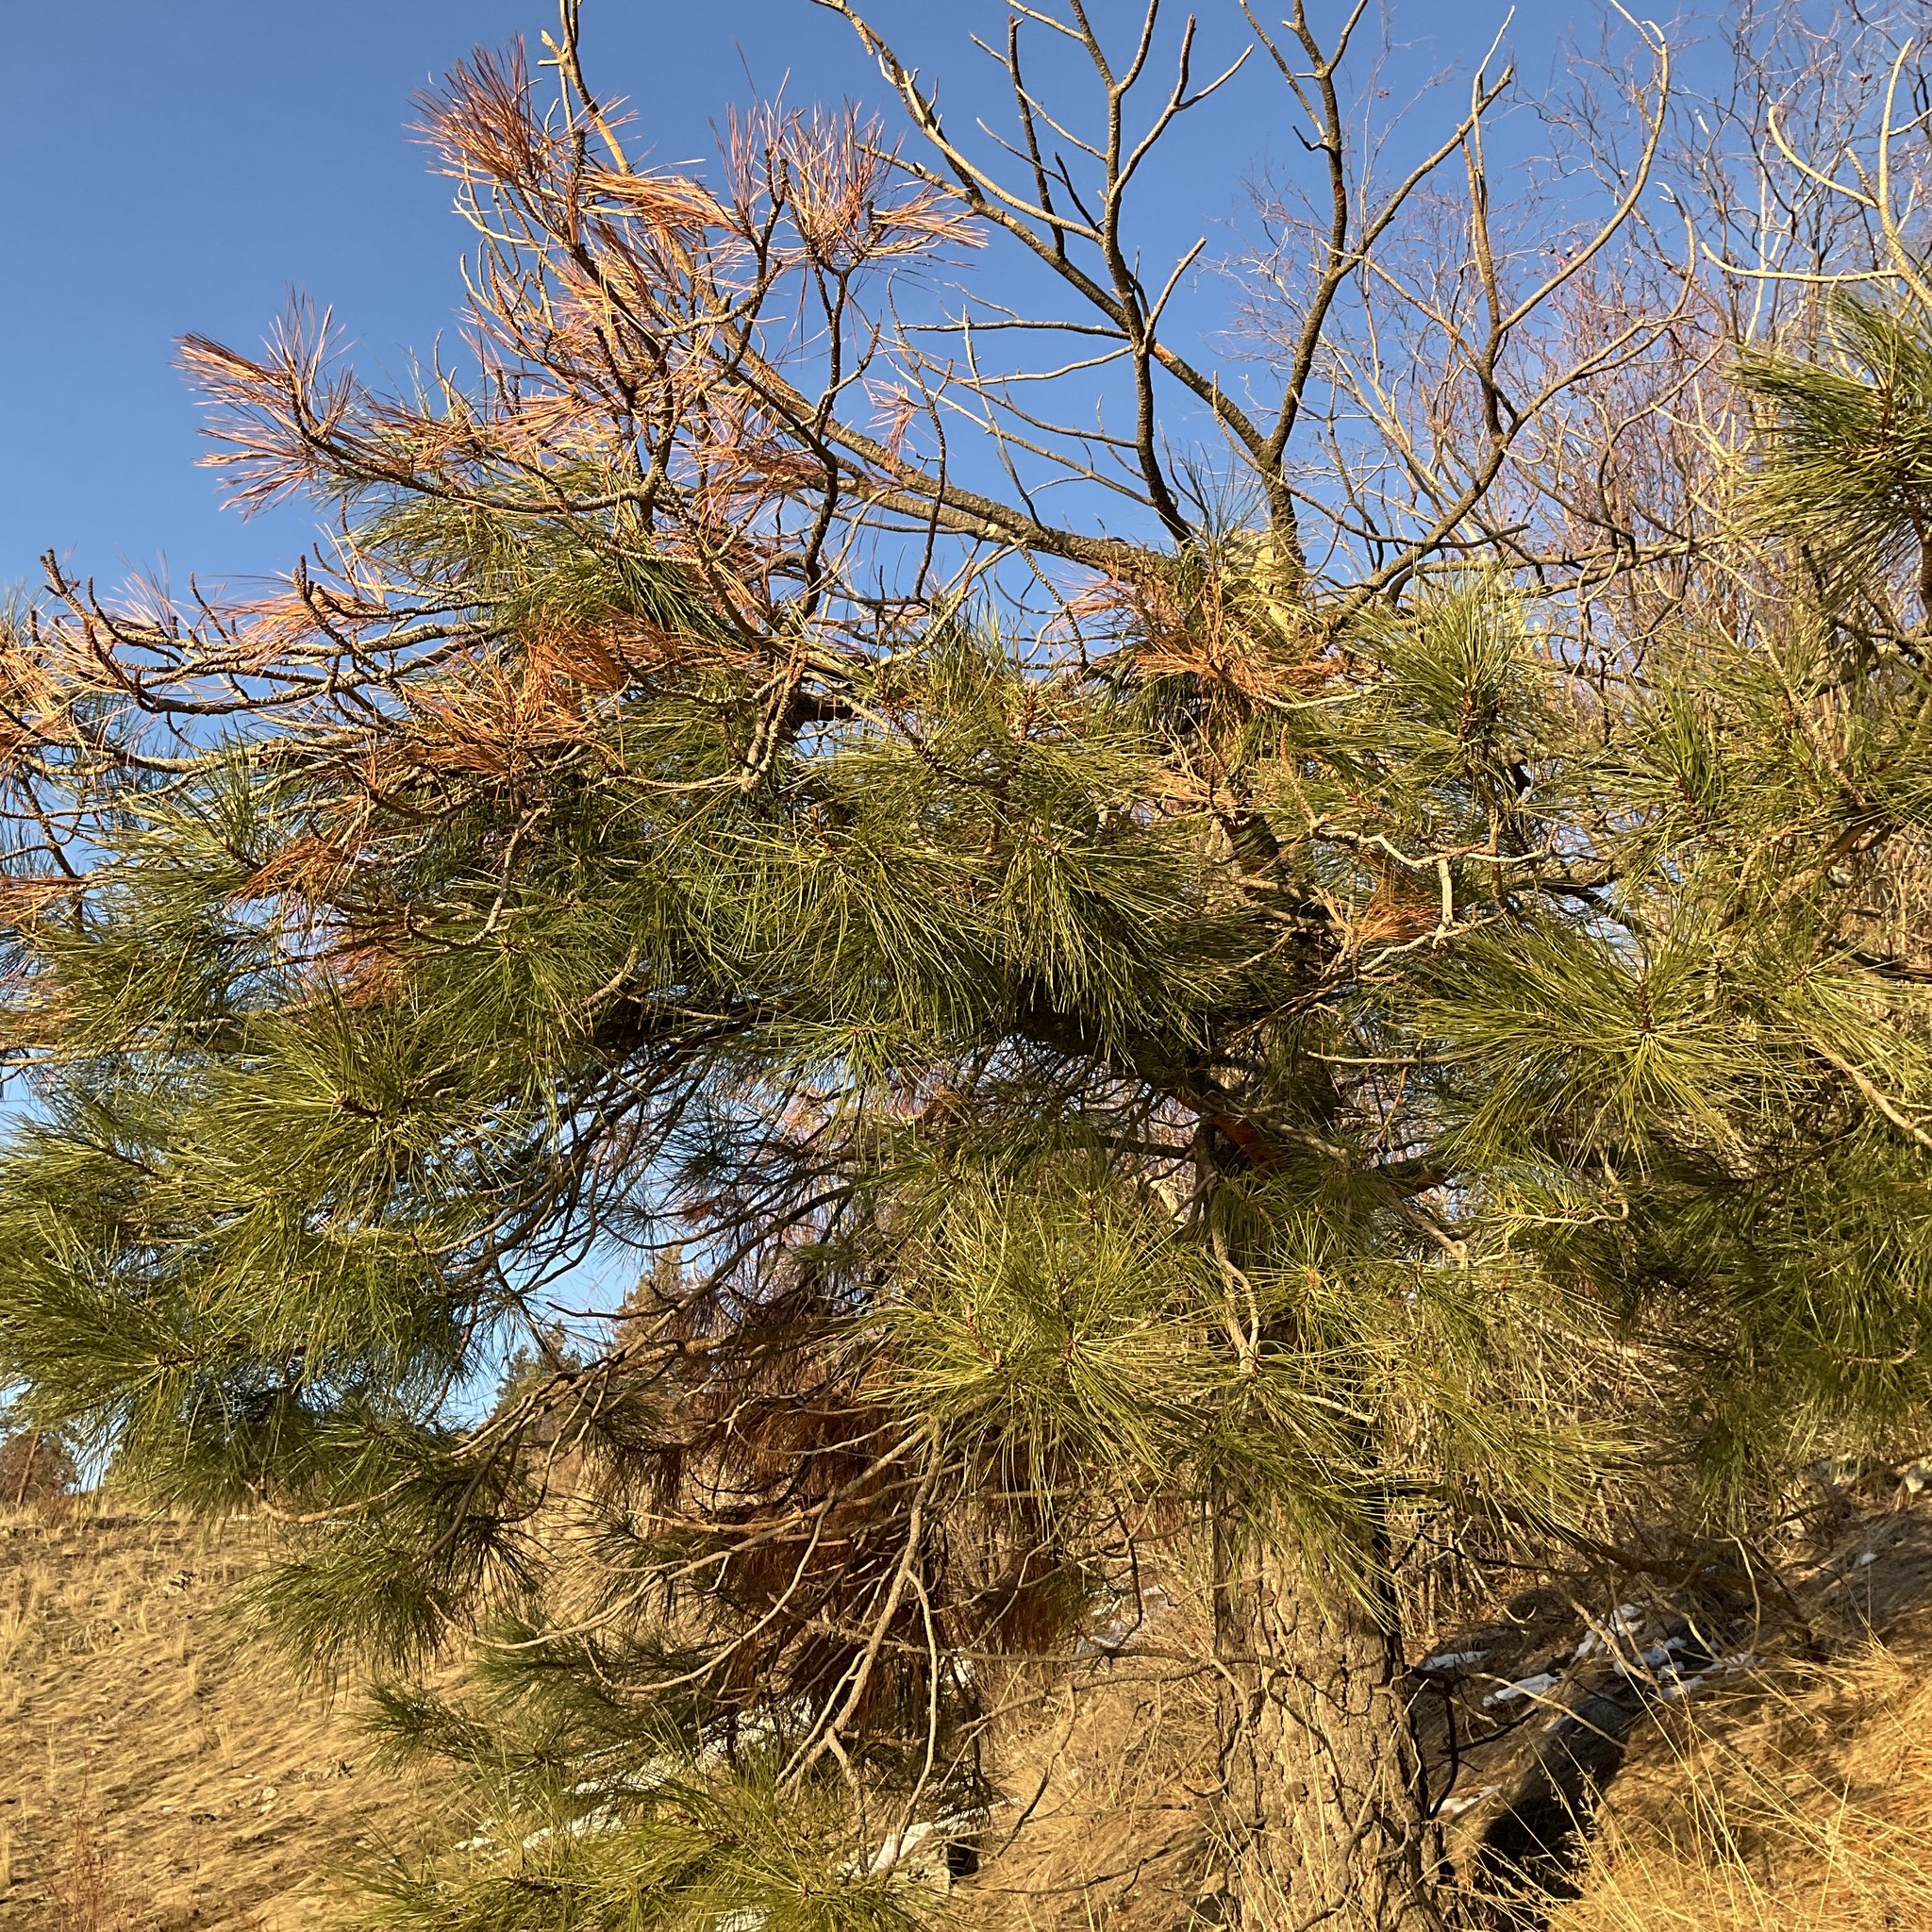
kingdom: Plantae
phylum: Tracheophyta
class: Pinopsida
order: Pinales
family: Pinaceae
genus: Pinus
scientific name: Pinus ponderosa
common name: Western yellow-pine
